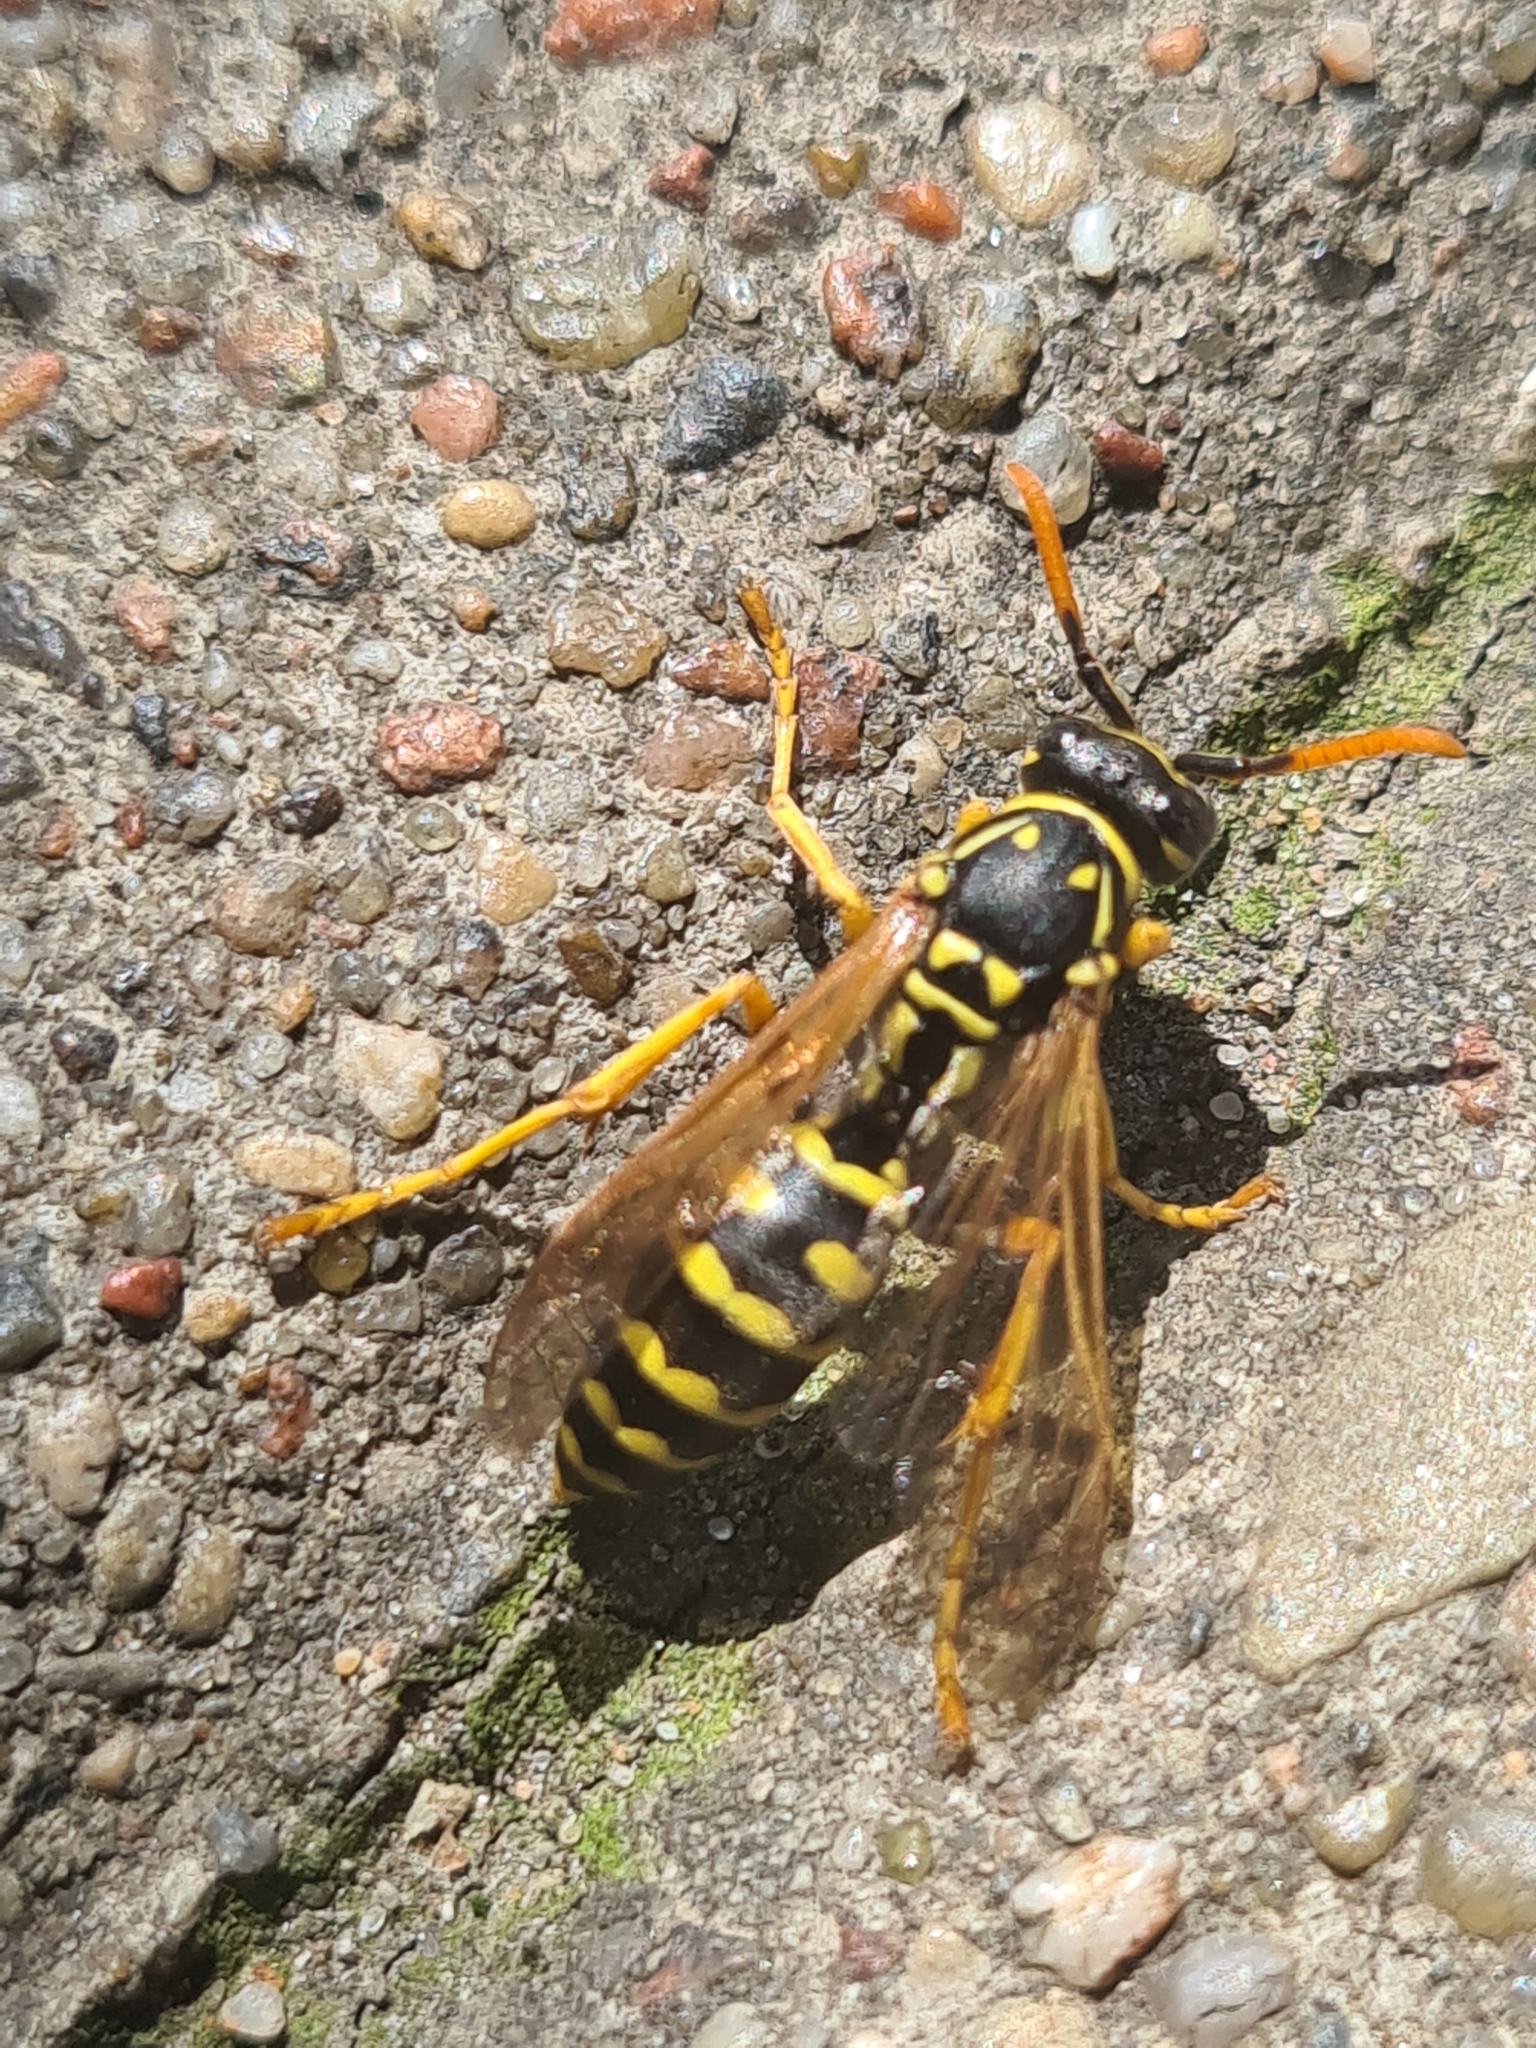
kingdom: Animalia
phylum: Arthropoda
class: Insecta
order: Hymenoptera
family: Eumenidae
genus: Polistes
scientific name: Polistes dominula
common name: Paper wasp
